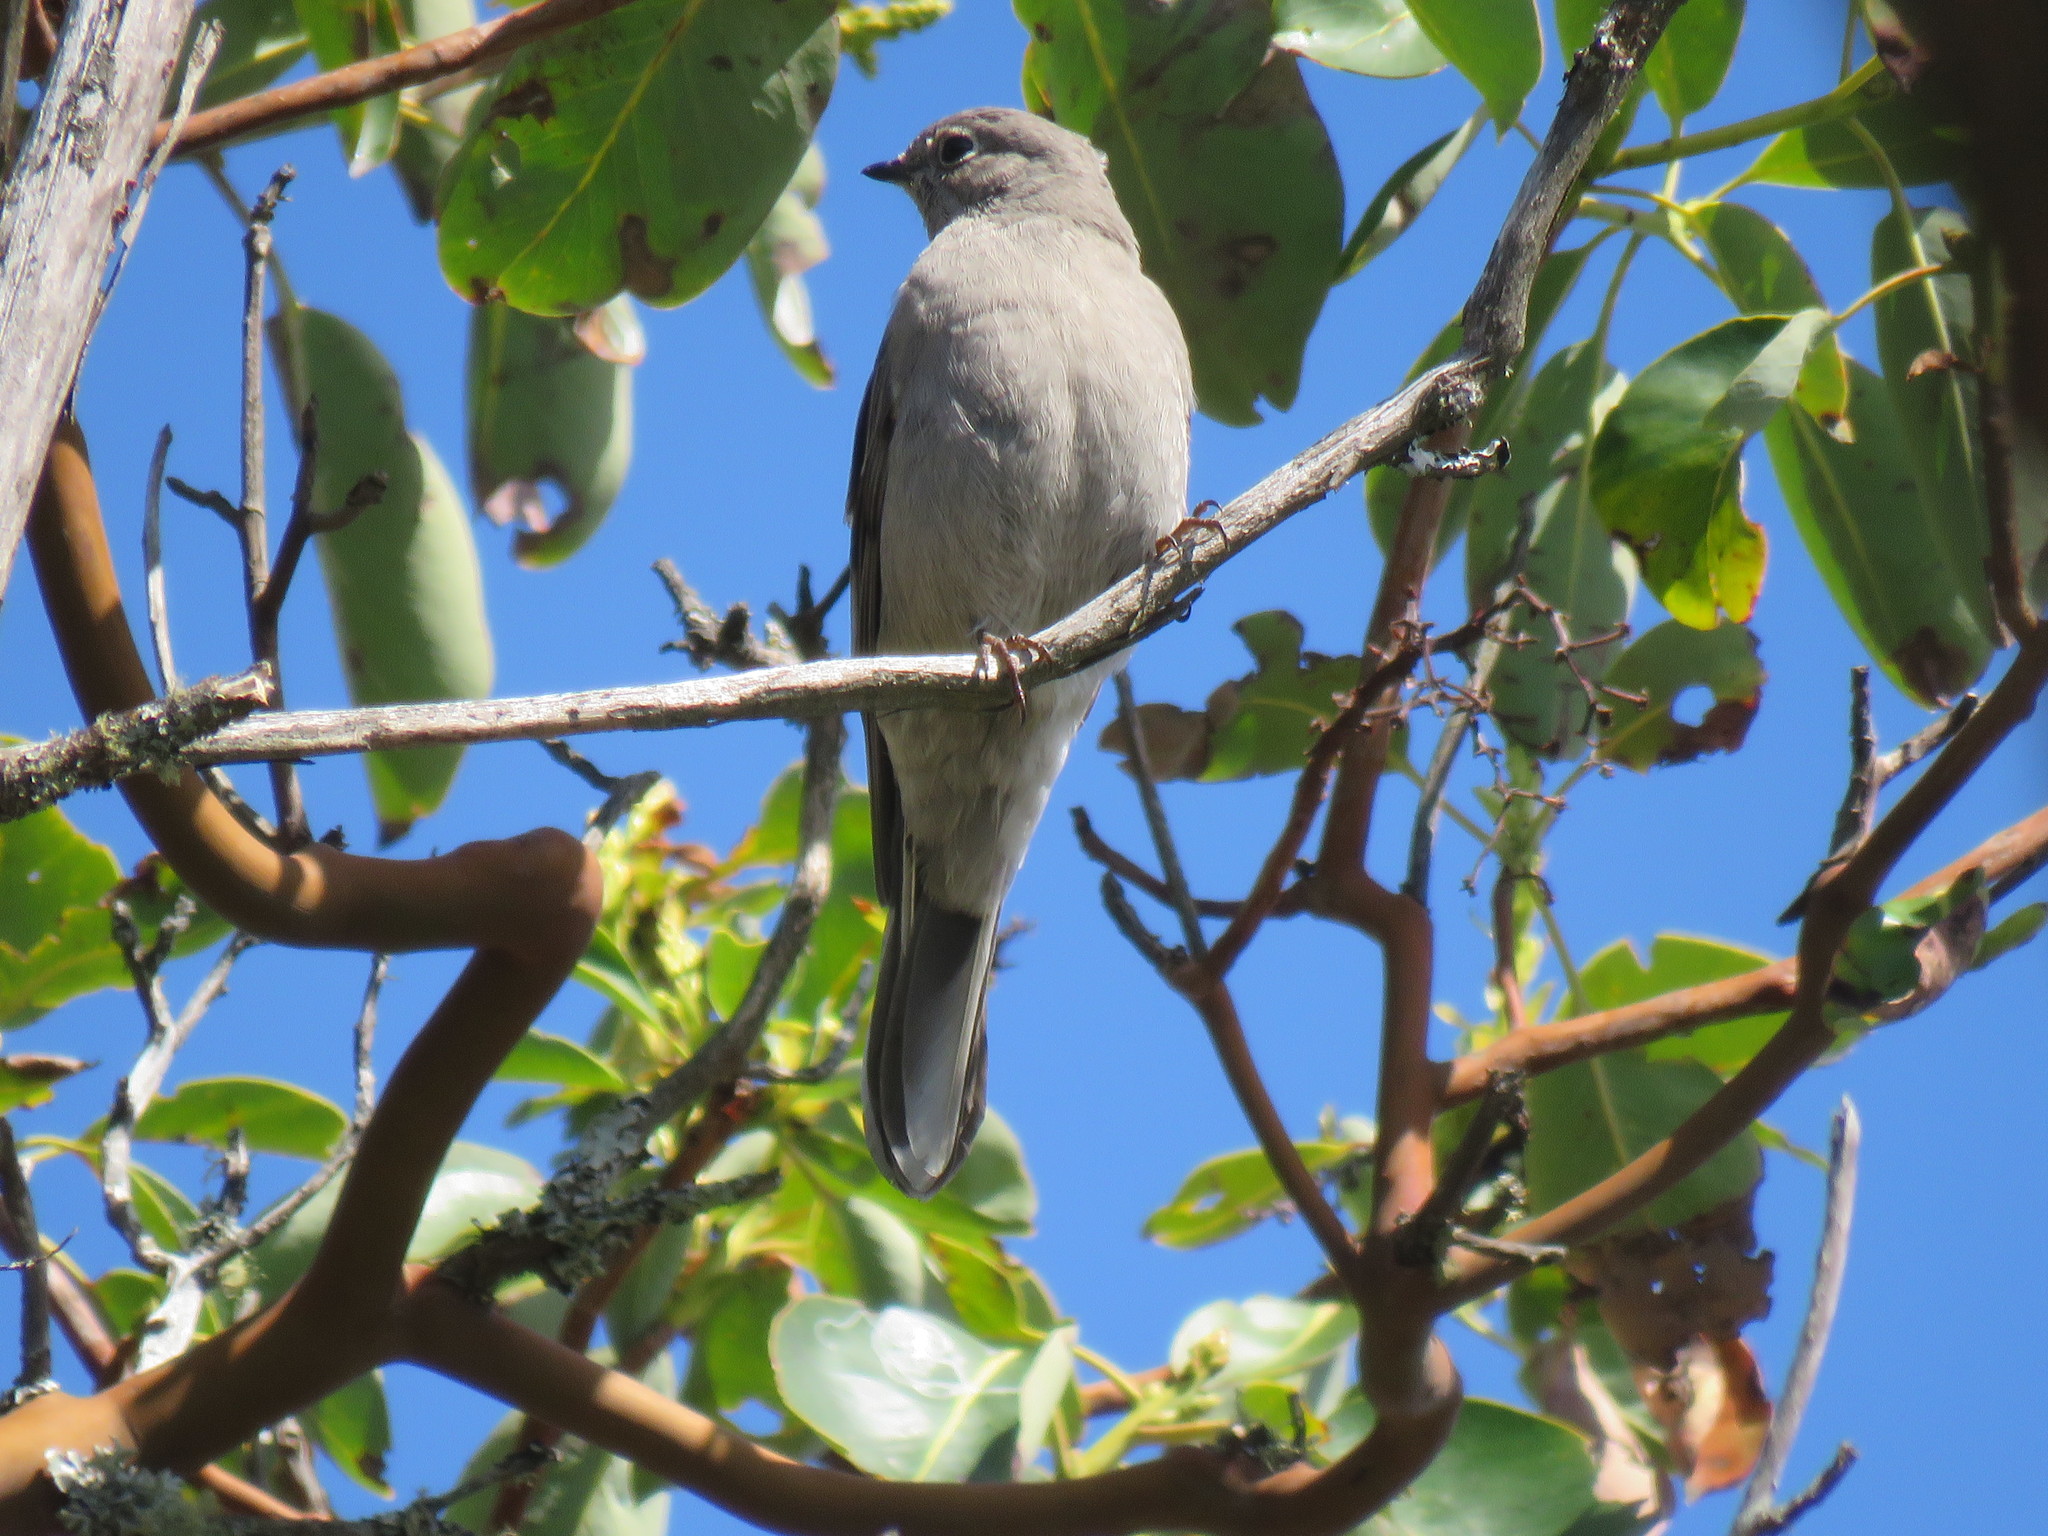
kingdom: Animalia
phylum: Chordata
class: Aves
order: Passeriformes
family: Turdidae
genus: Myadestes
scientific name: Myadestes townsendi
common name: Townsend's solitaire
